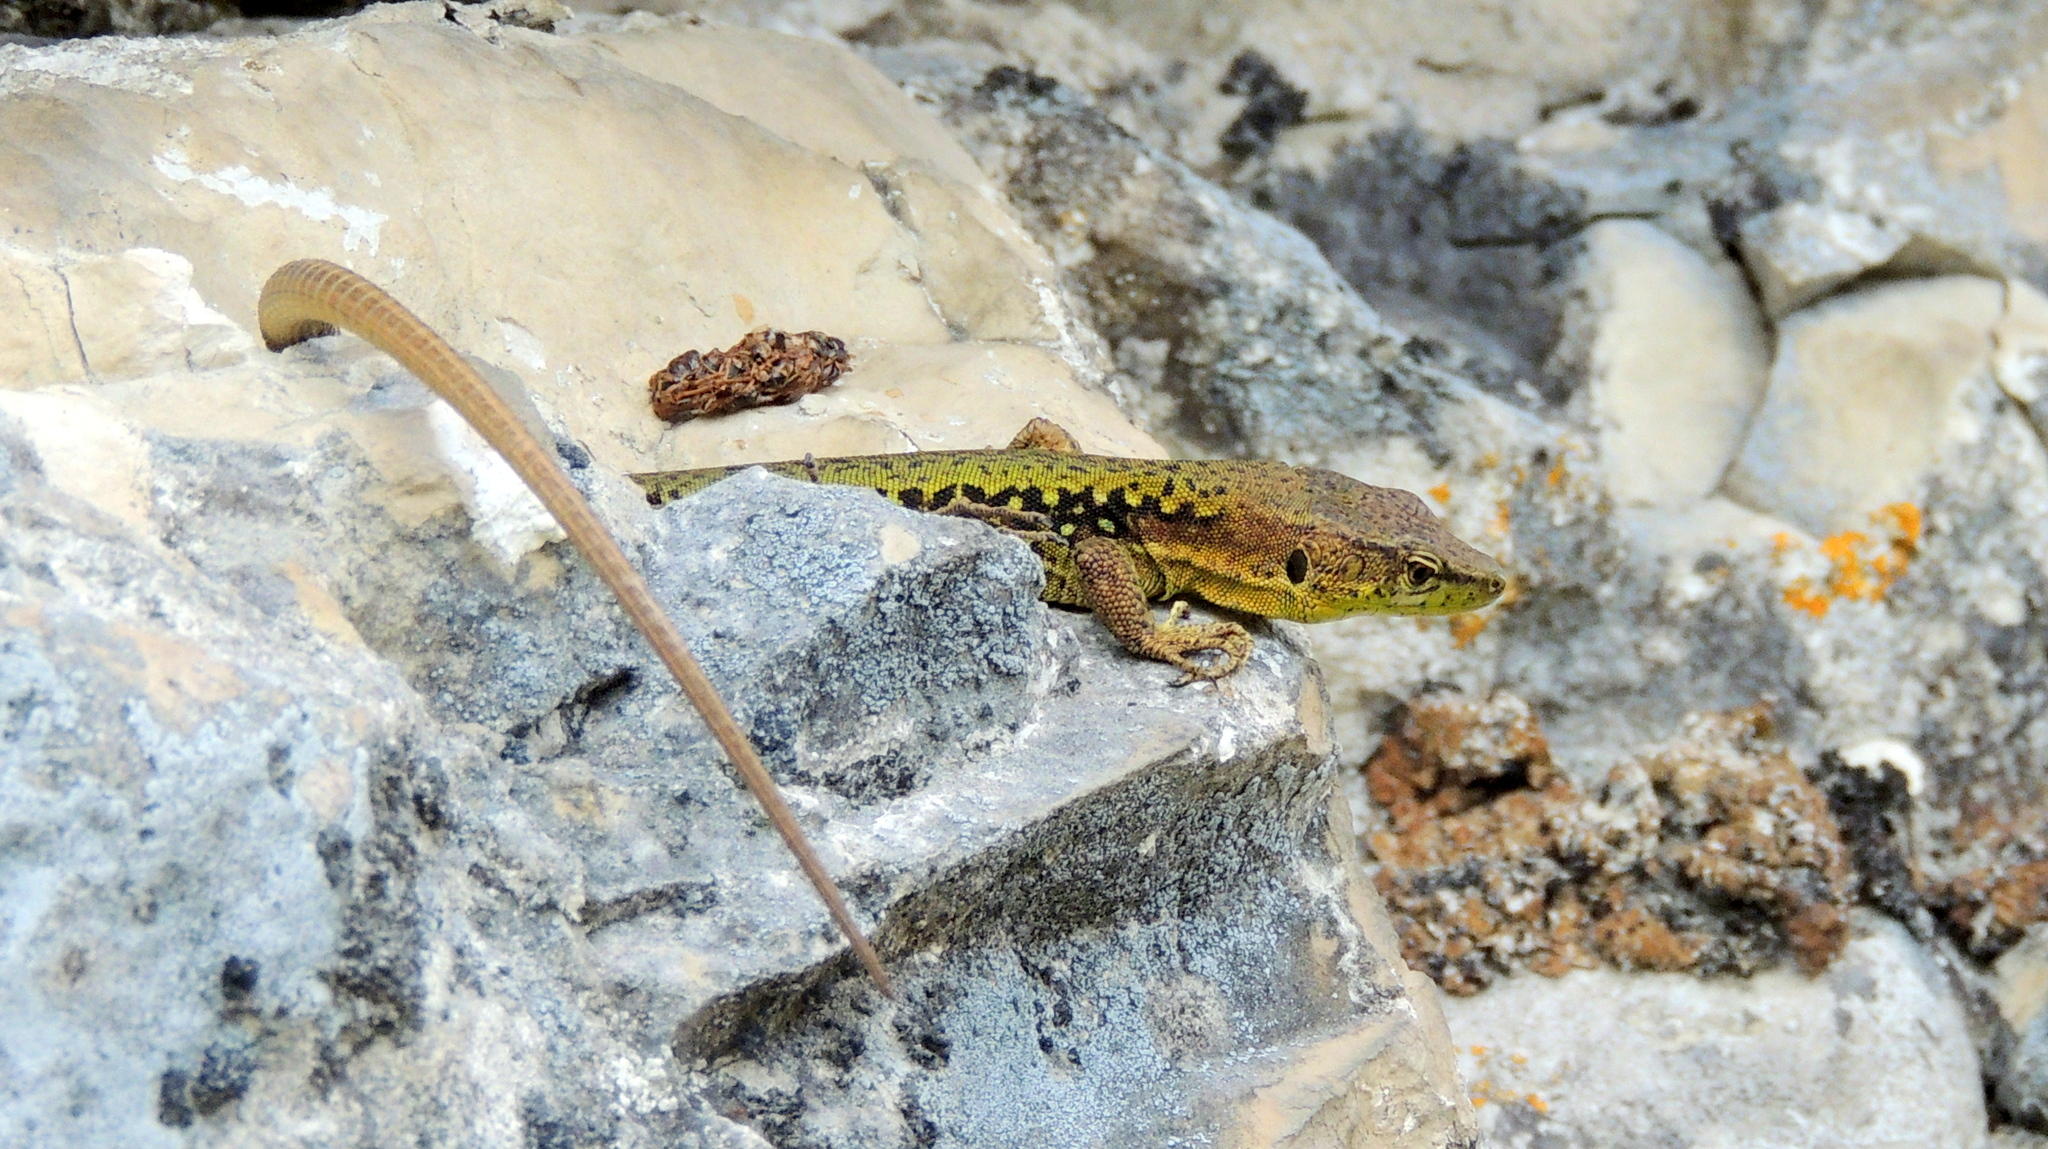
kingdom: Animalia
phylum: Chordata
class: Squamata
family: Lacertidae
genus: Darevskia
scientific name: Darevskia brauneri
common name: Brauner's rock lizard
